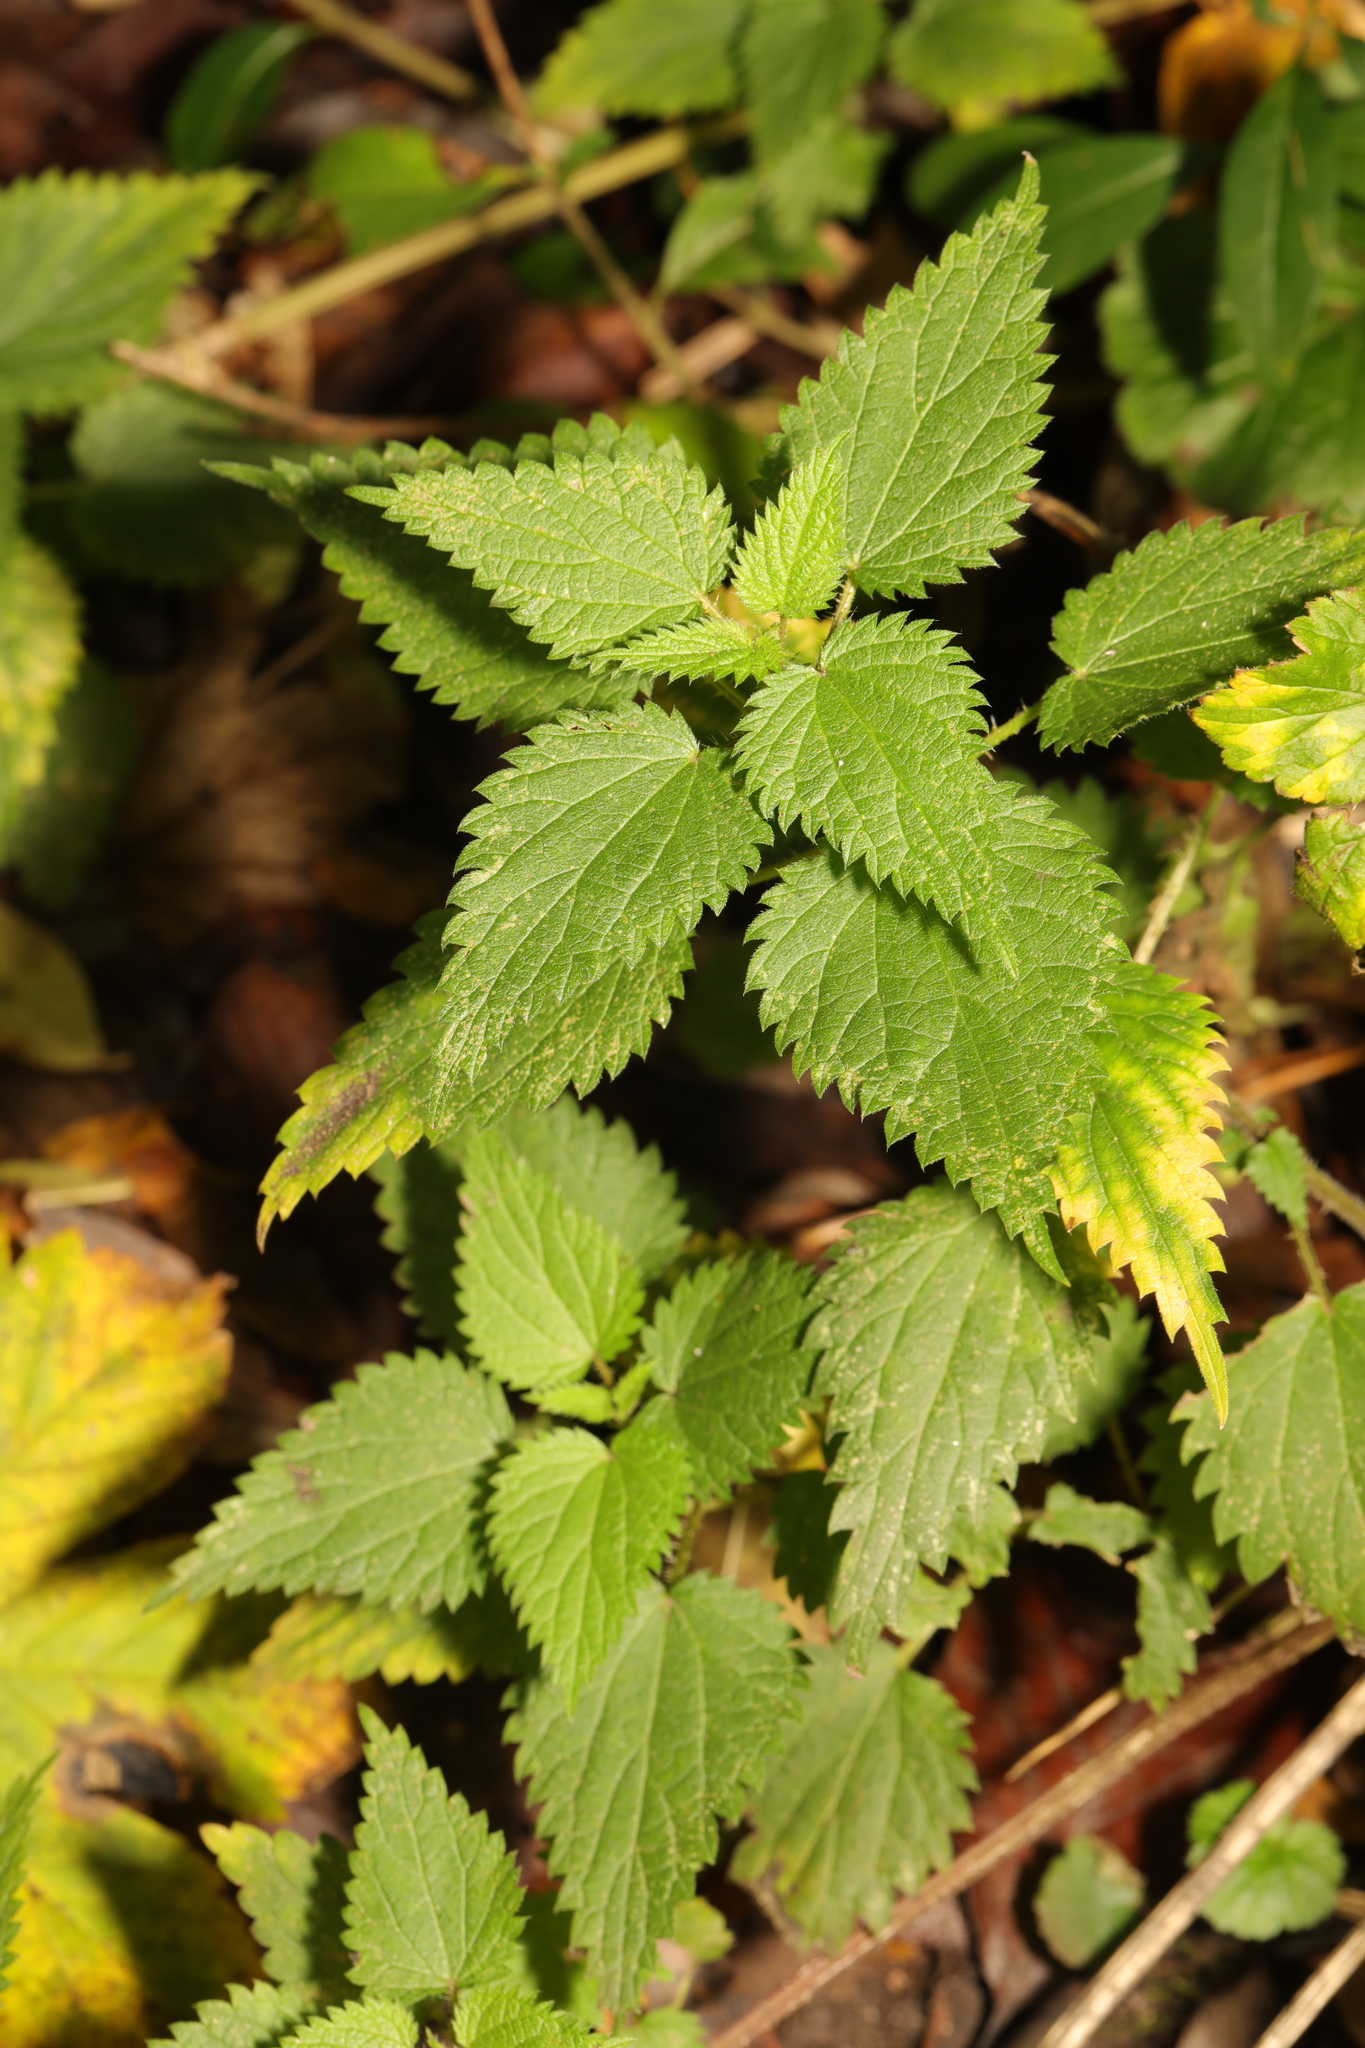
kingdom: Plantae
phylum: Tracheophyta
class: Magnoliopsida
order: Rosales
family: Urticaceae
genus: Urtica
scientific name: Urtica dioica
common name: Common nettle
